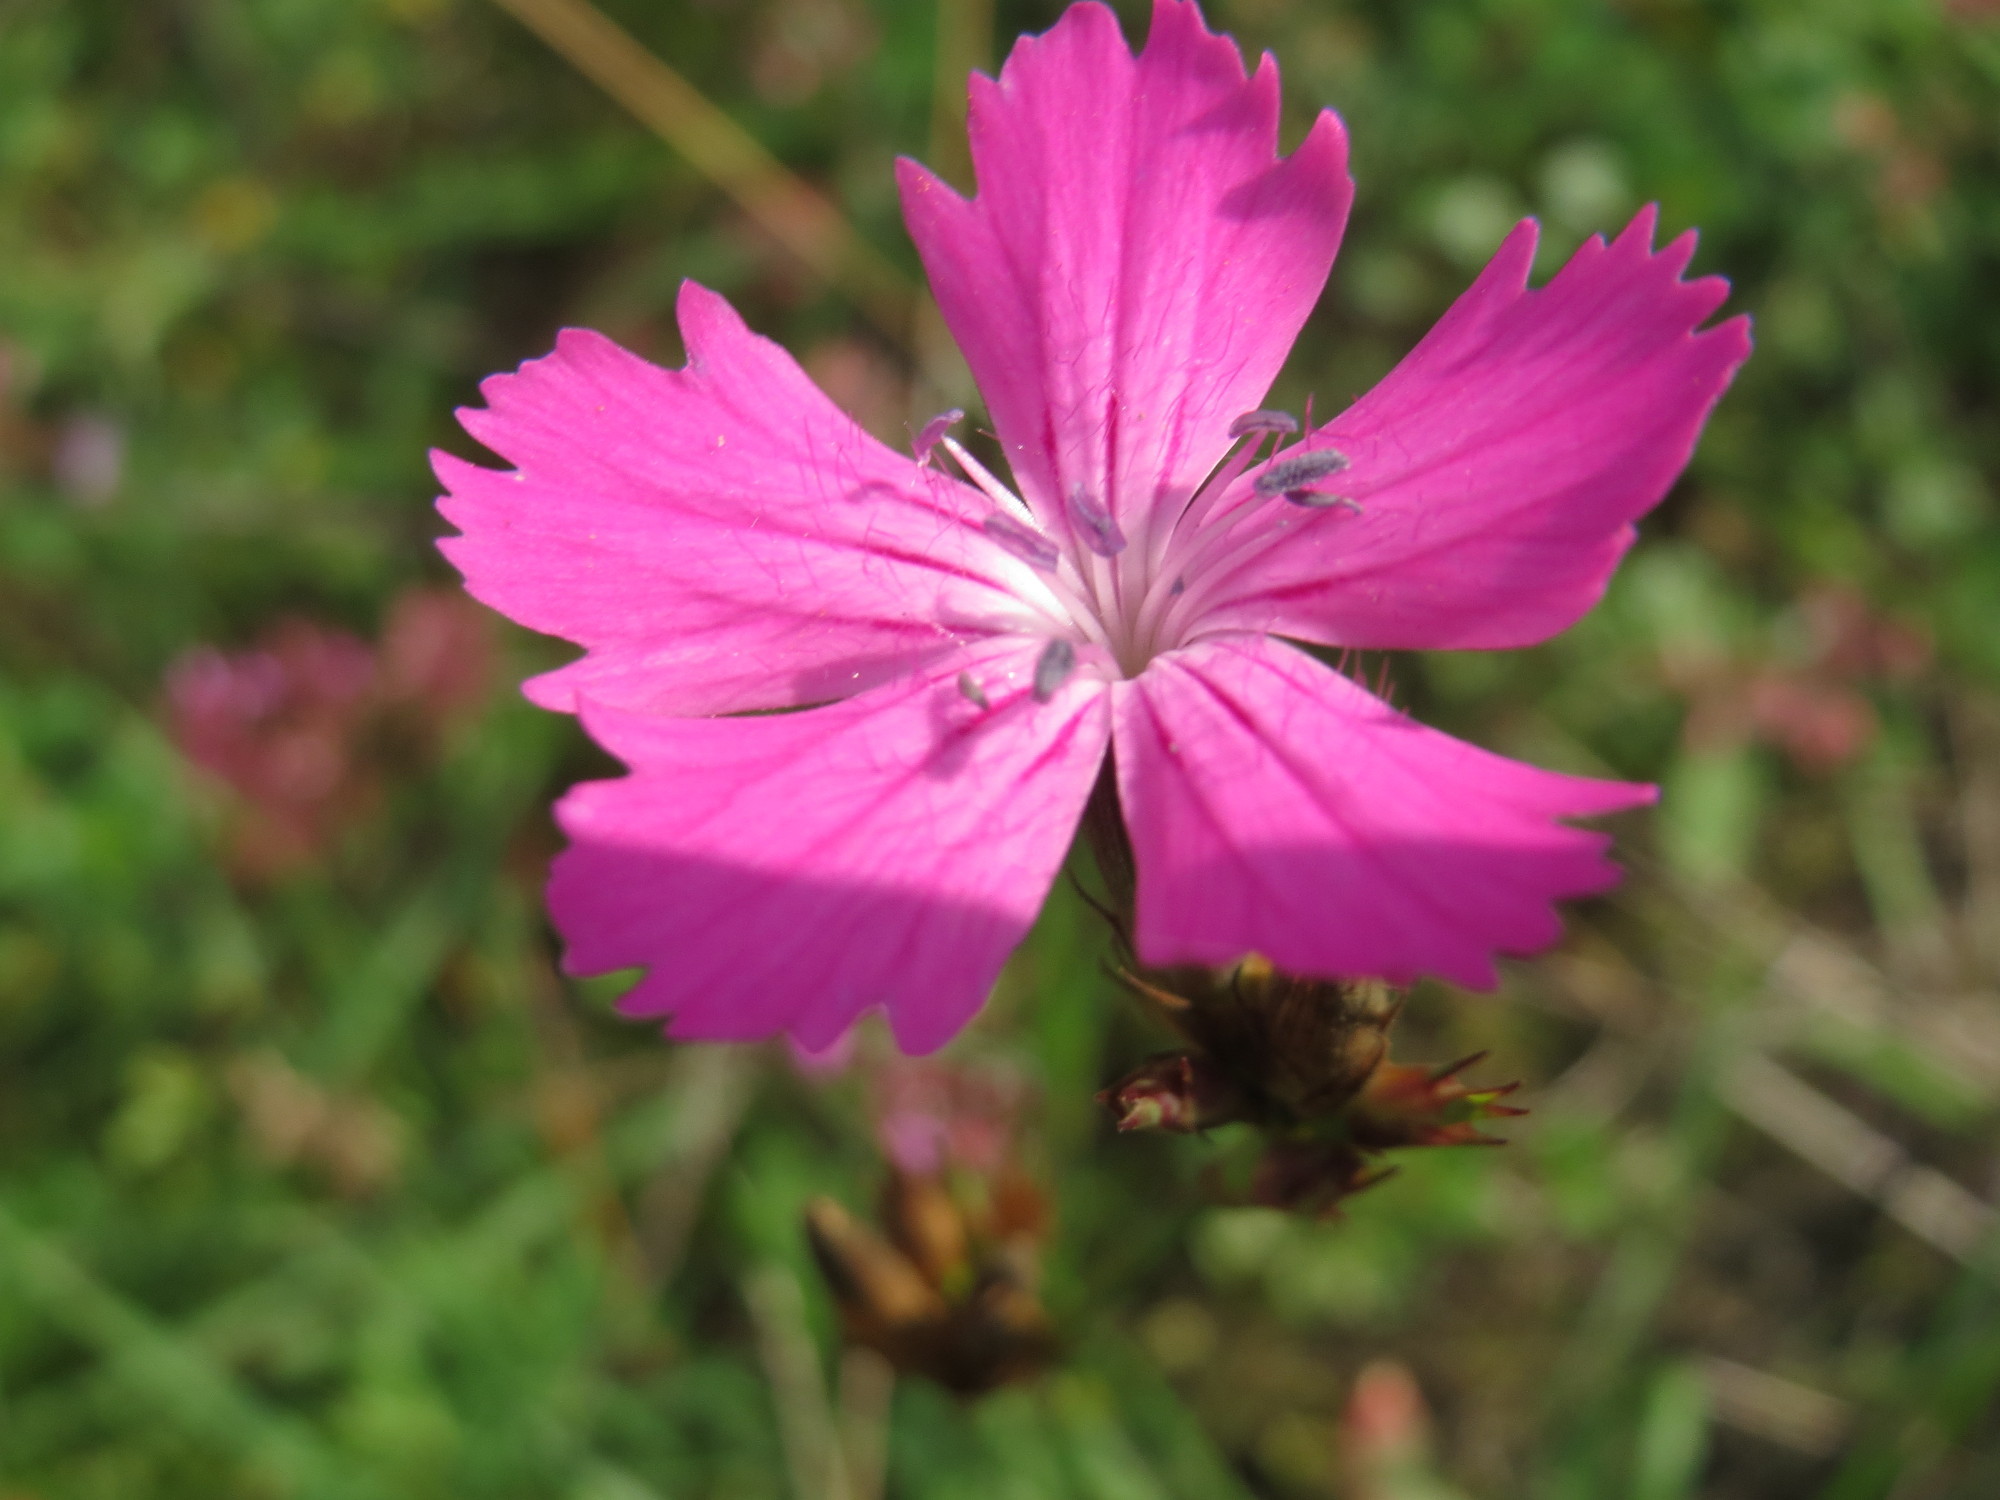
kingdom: Plantae
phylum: Tracheophyta
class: Magnoliopsida
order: Caryophyllales
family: Caryophyllaceae
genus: Dianthus
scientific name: Dianthus carthusianorum
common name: Carthusian pink
